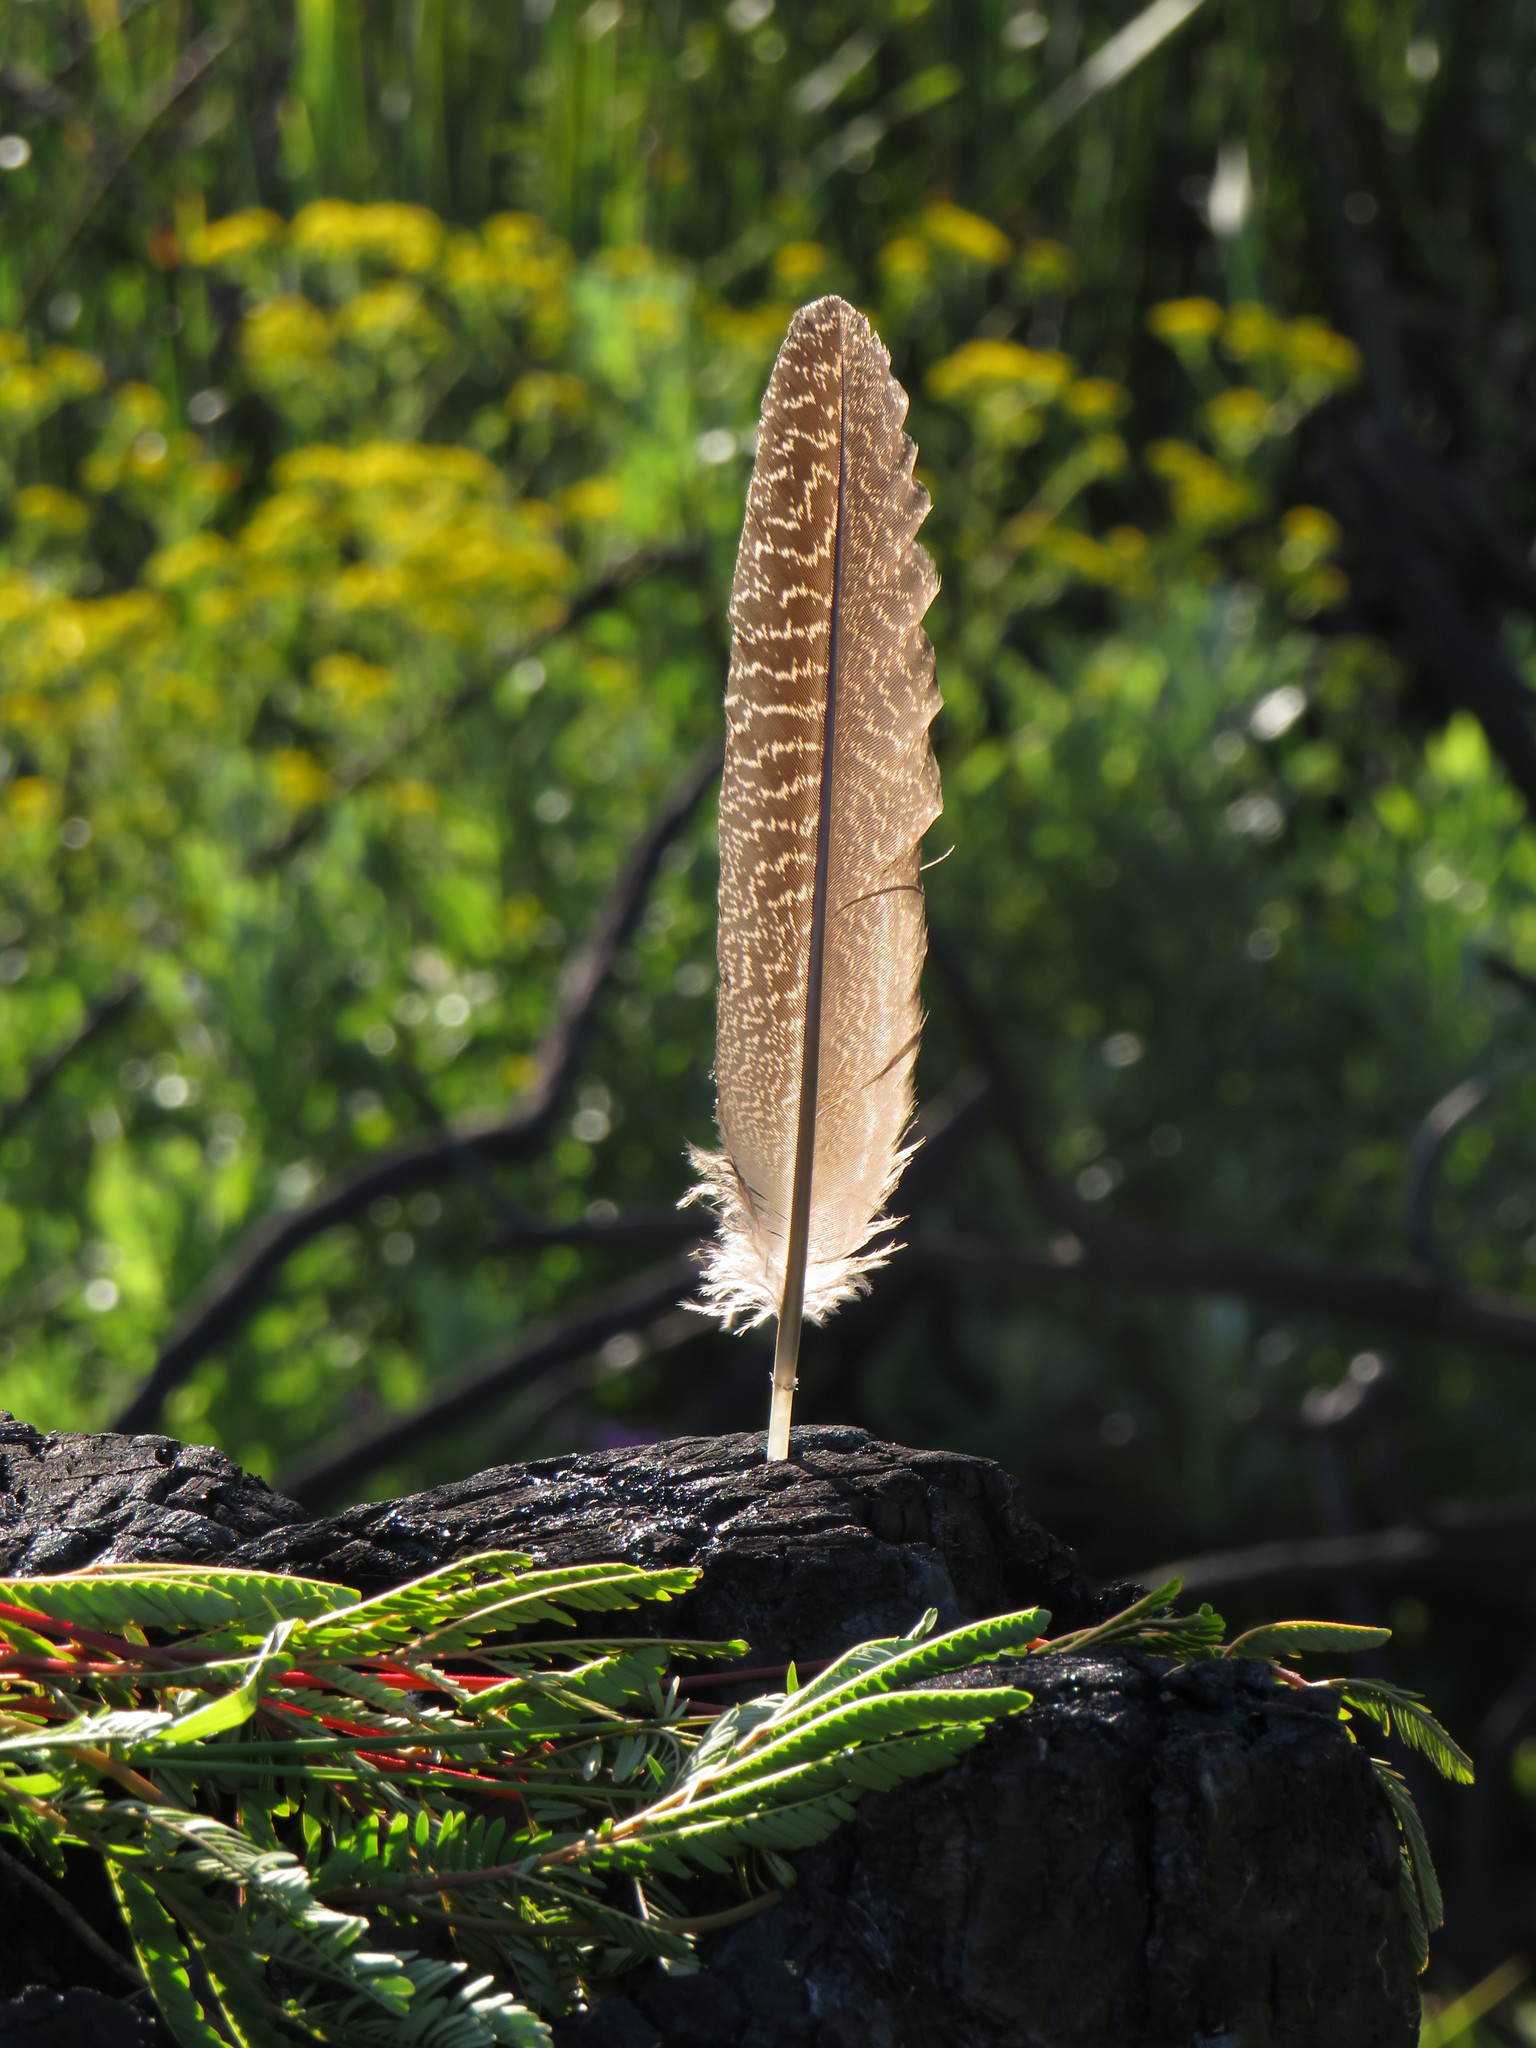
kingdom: Animalia
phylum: Chordata
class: Aves
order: Galliformes
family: Phasianidae
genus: Pternistis
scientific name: Pternistis capensis
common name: Cape spurfowl
